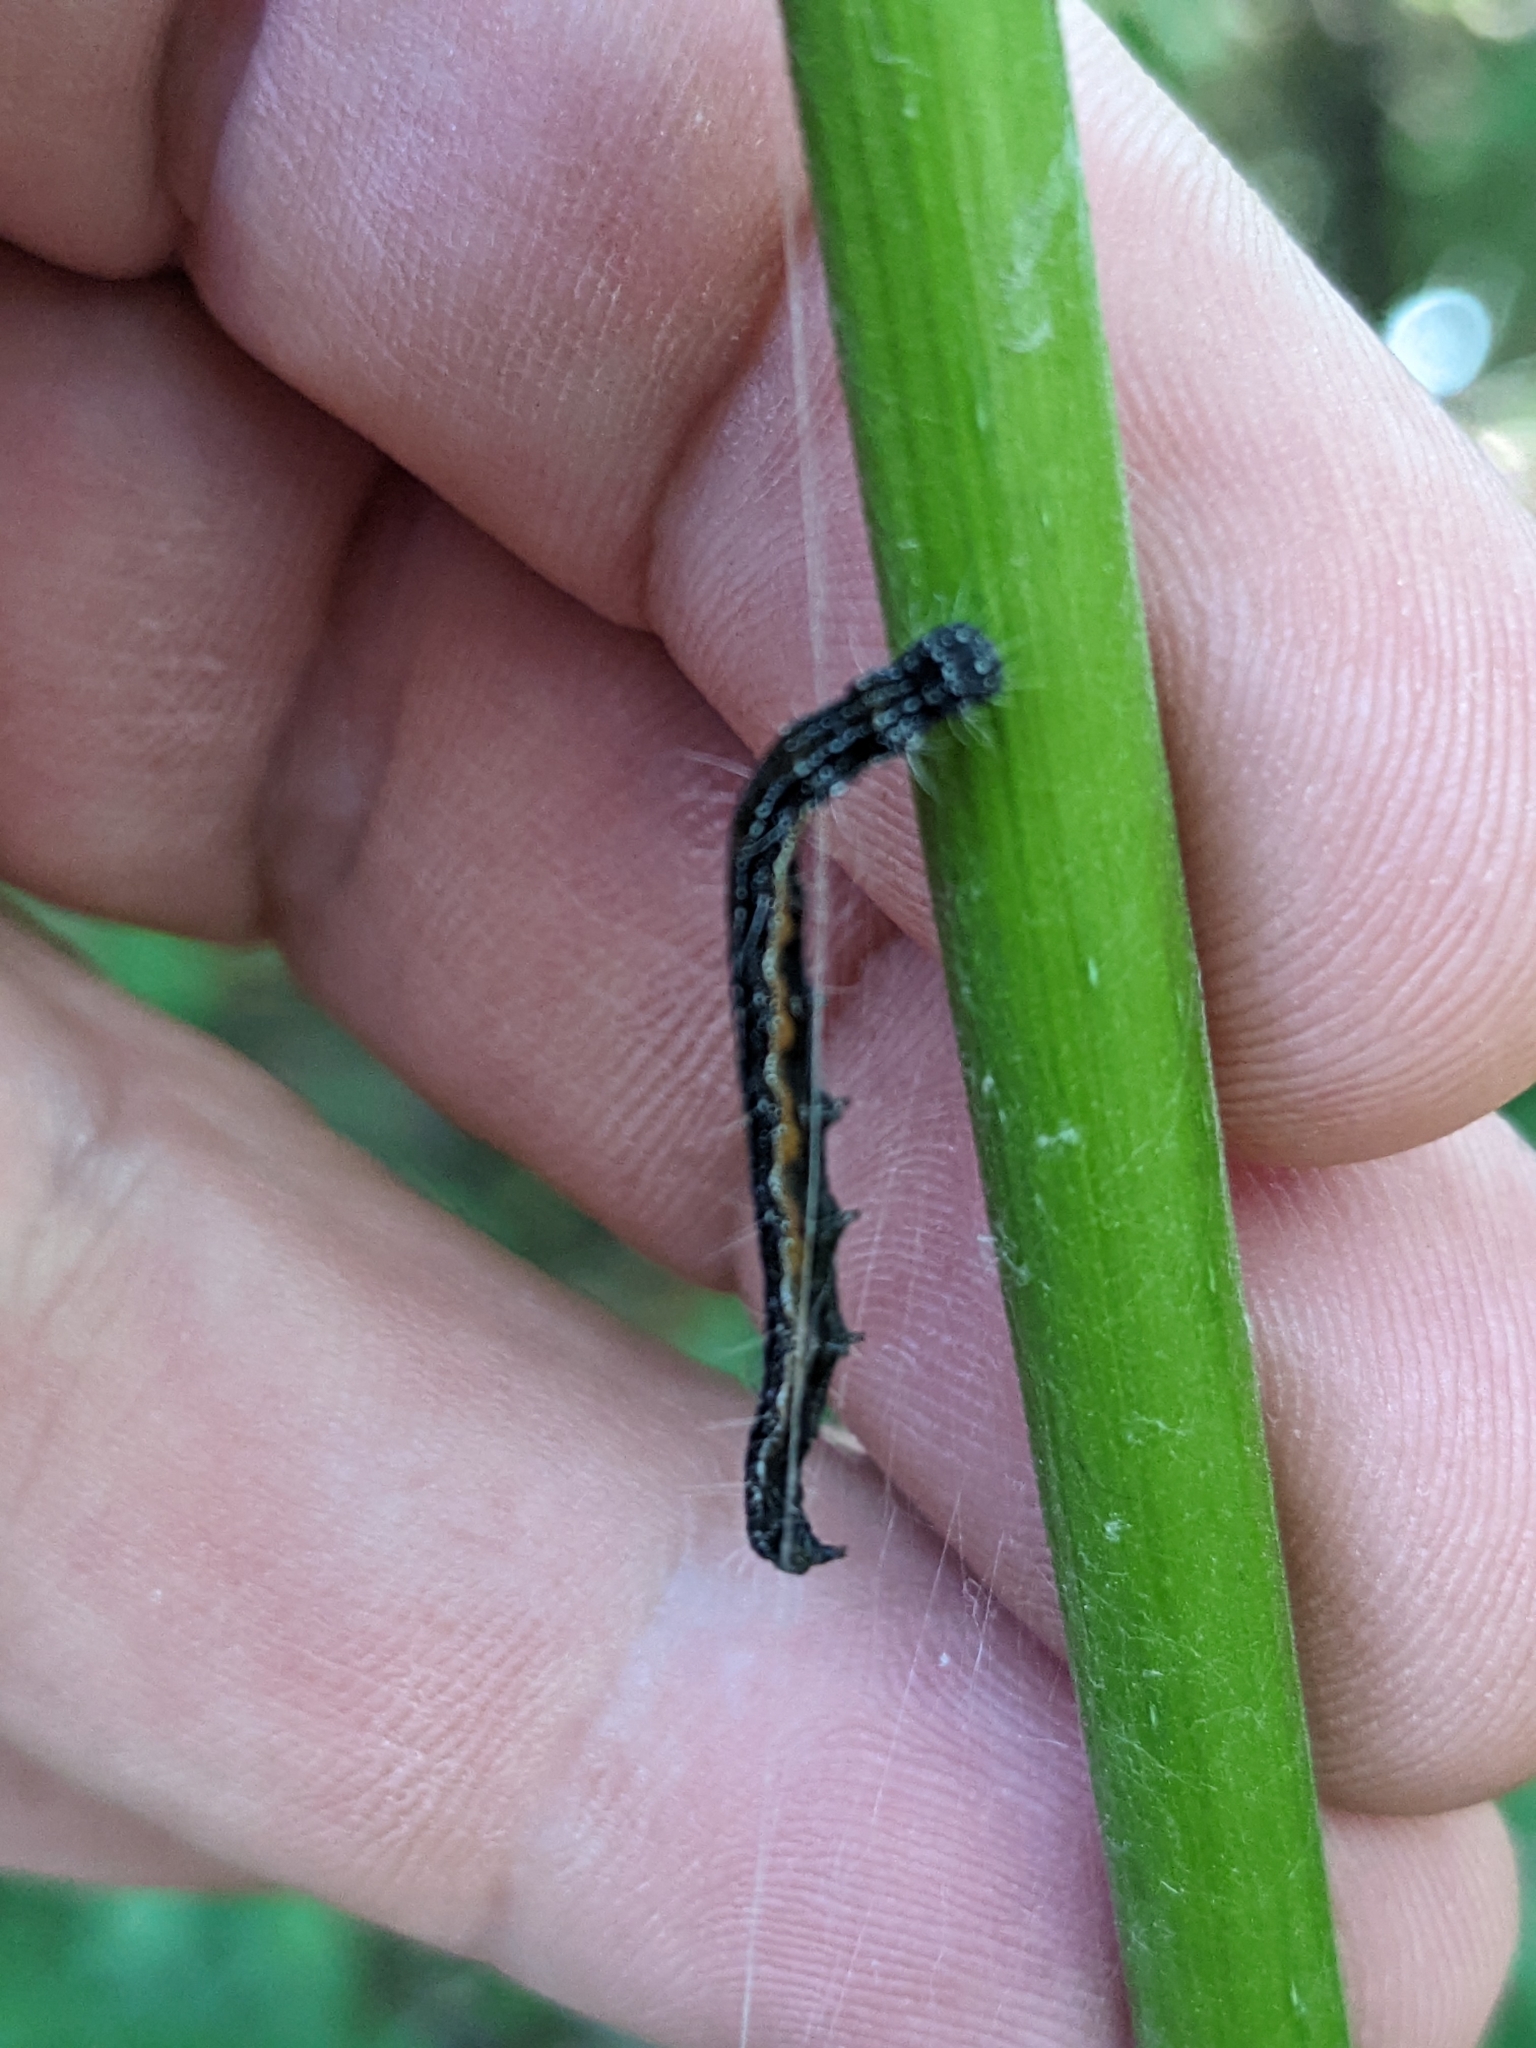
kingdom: Animalia
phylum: Arthropoda
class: Insecta
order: Lepidoptera
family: Attevidae
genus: Atteva
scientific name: Atteva punctella
